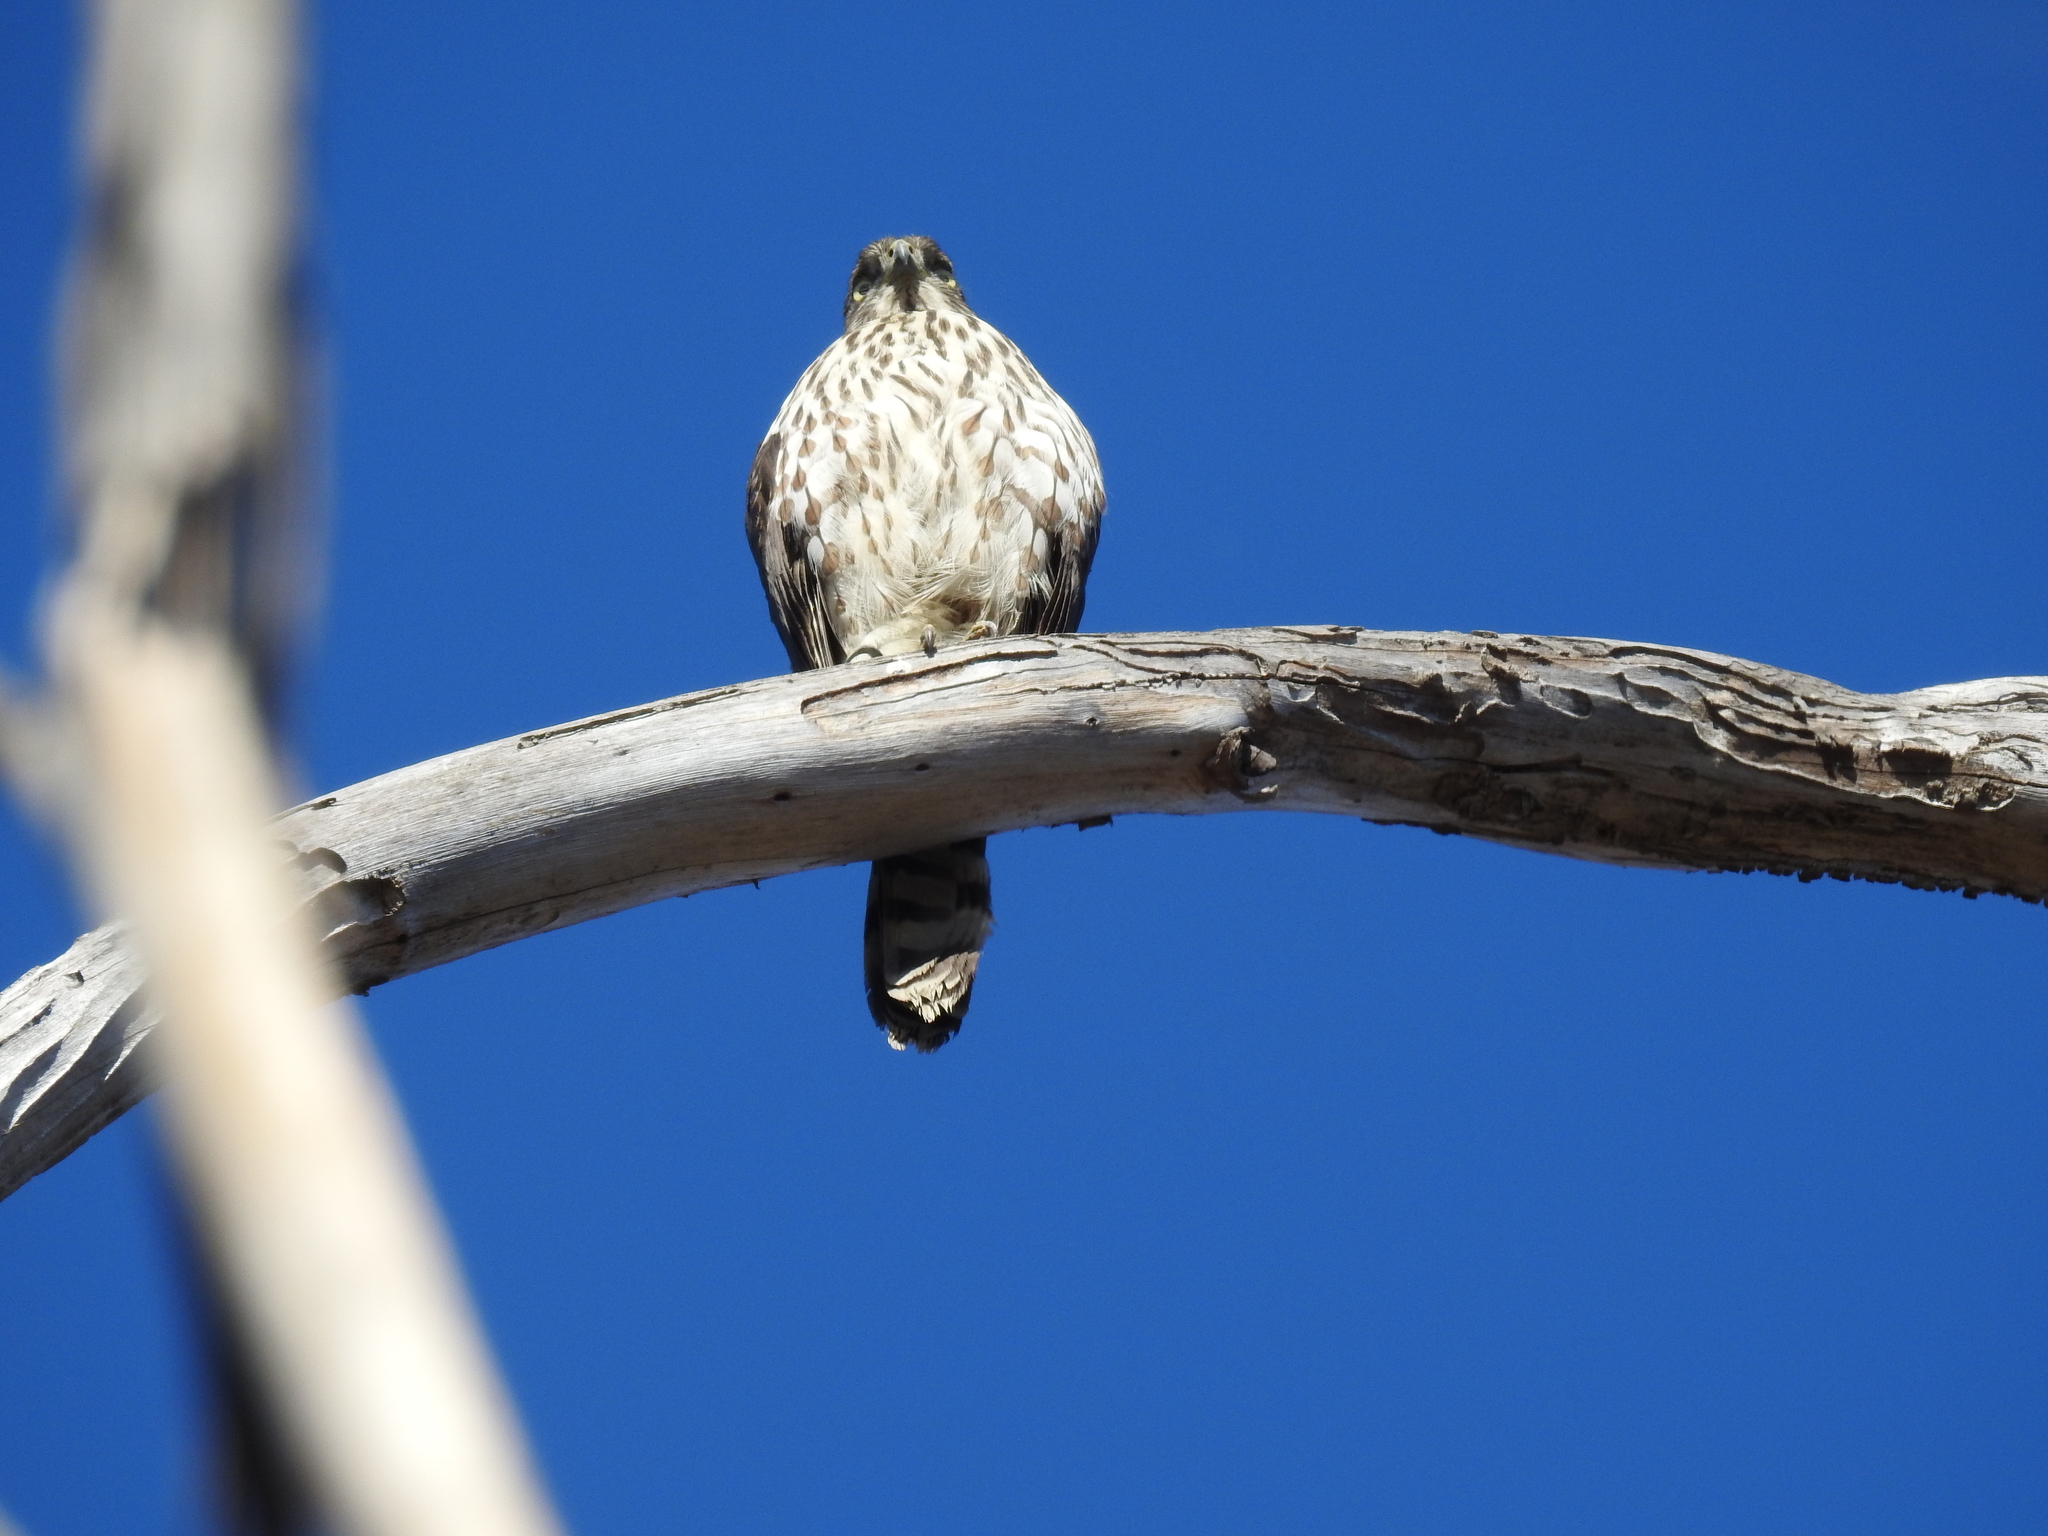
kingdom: Animalia
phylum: Chordata
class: Aves
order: Accipitriformes
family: Accipitridae
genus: Accipiter
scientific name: Accipiter cooperii
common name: Cooper's hawk
